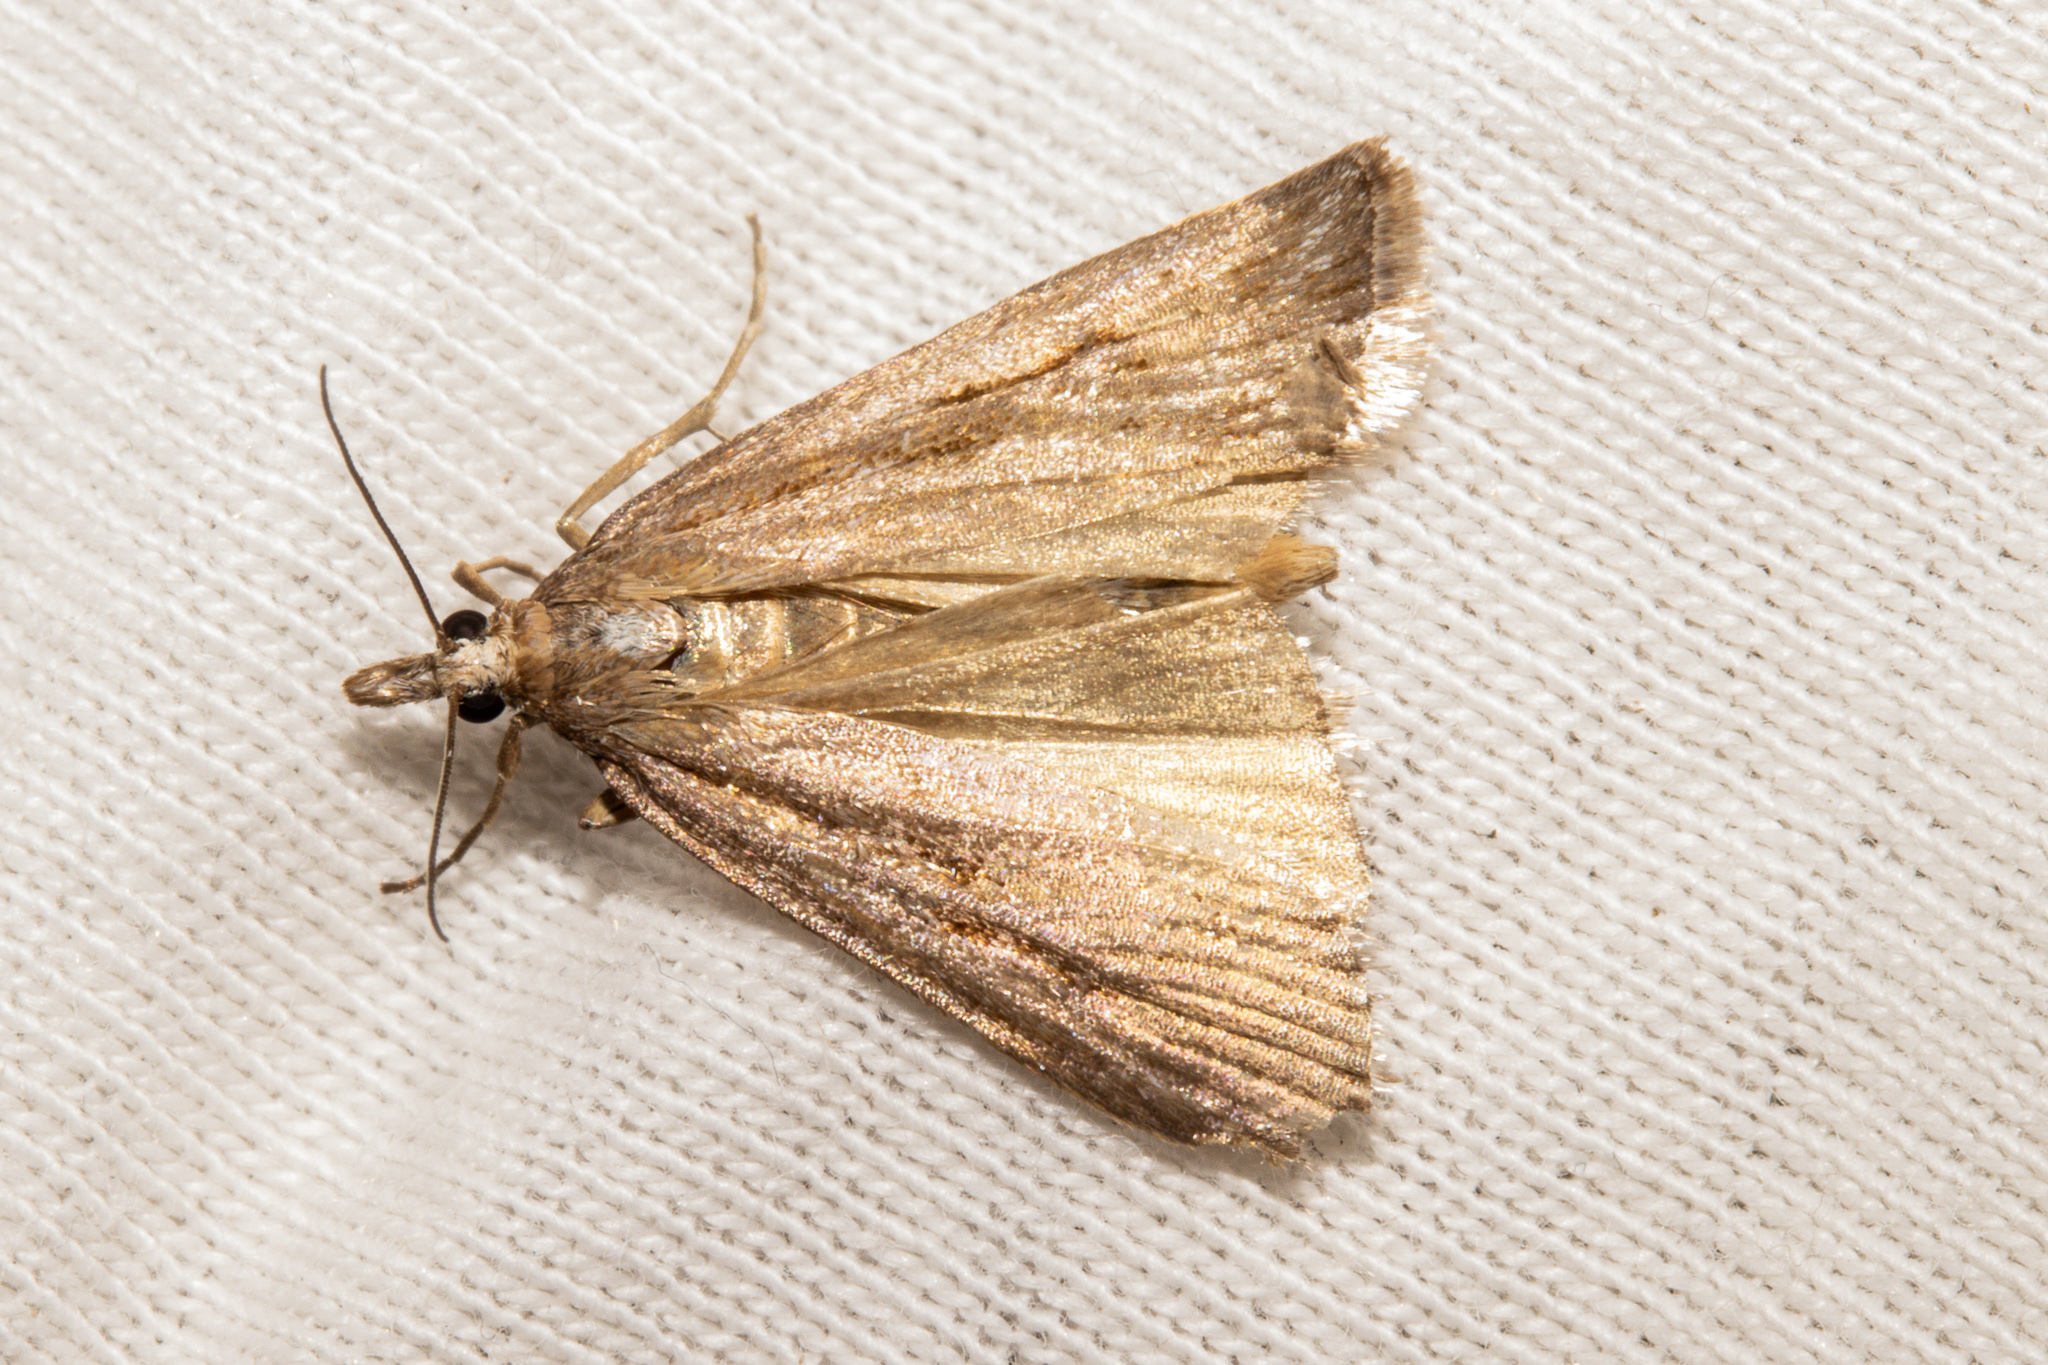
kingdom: Animalia
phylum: Arthropoda
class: Insecta
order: Lepidoptera
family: Crambidae
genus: Scoparia
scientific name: Scoparia panopla
